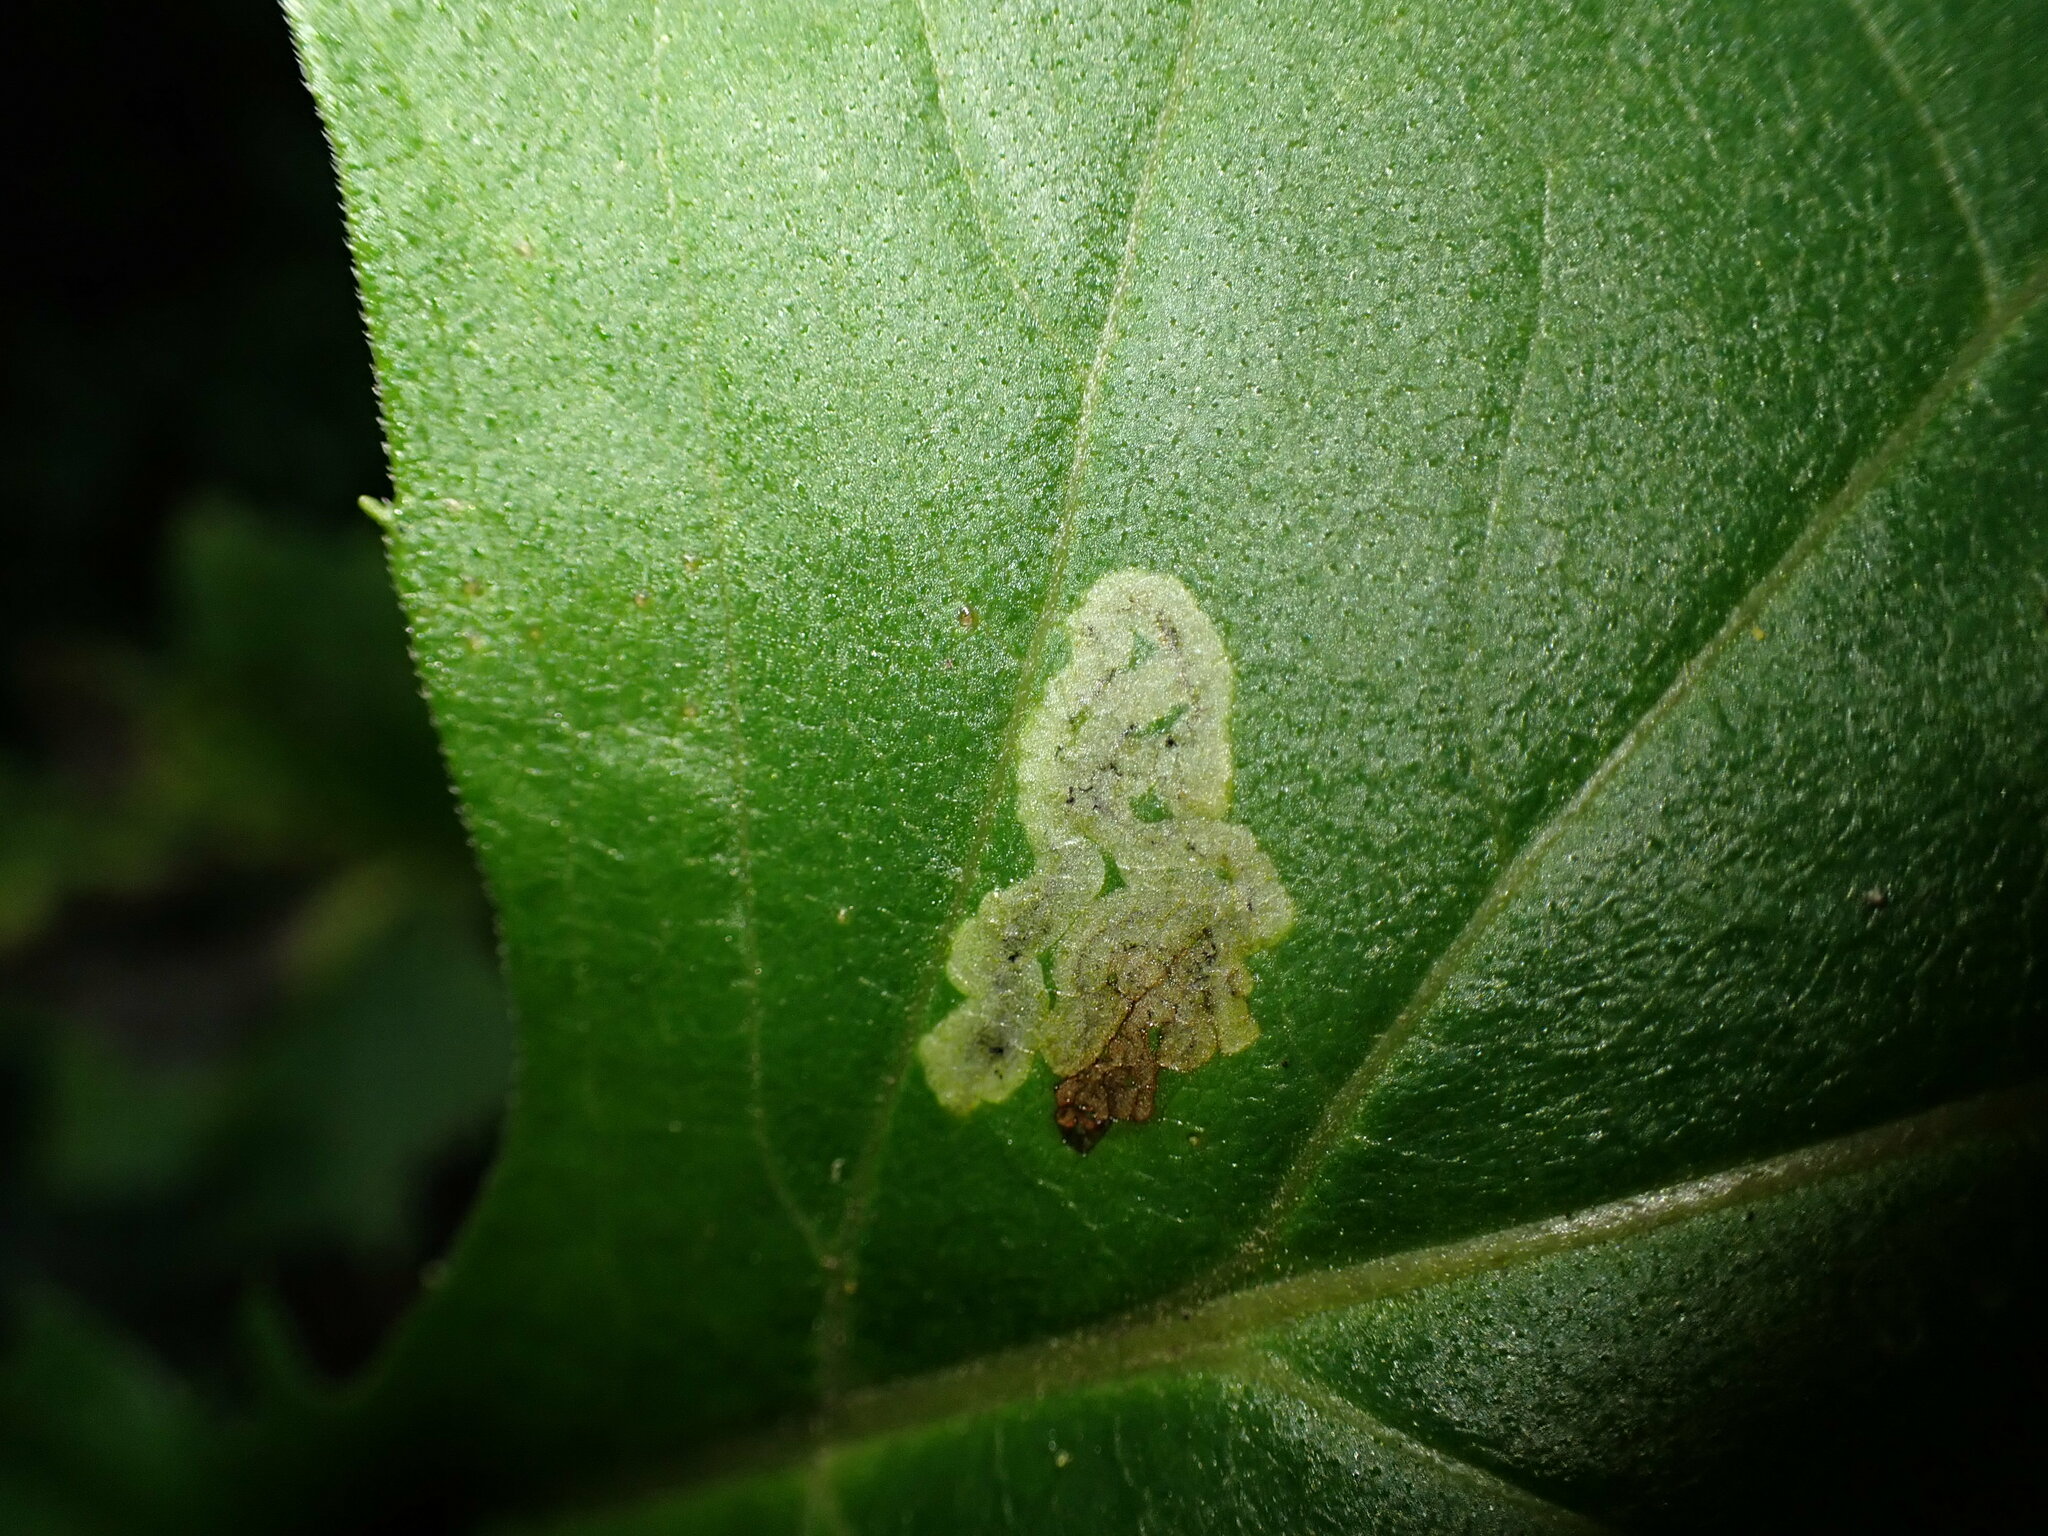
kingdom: Animalia
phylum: Arthropoda
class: Insecta
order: Diptera
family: Agromyzidae
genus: Liriomyza
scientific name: Liriomyza ivorcutleri
